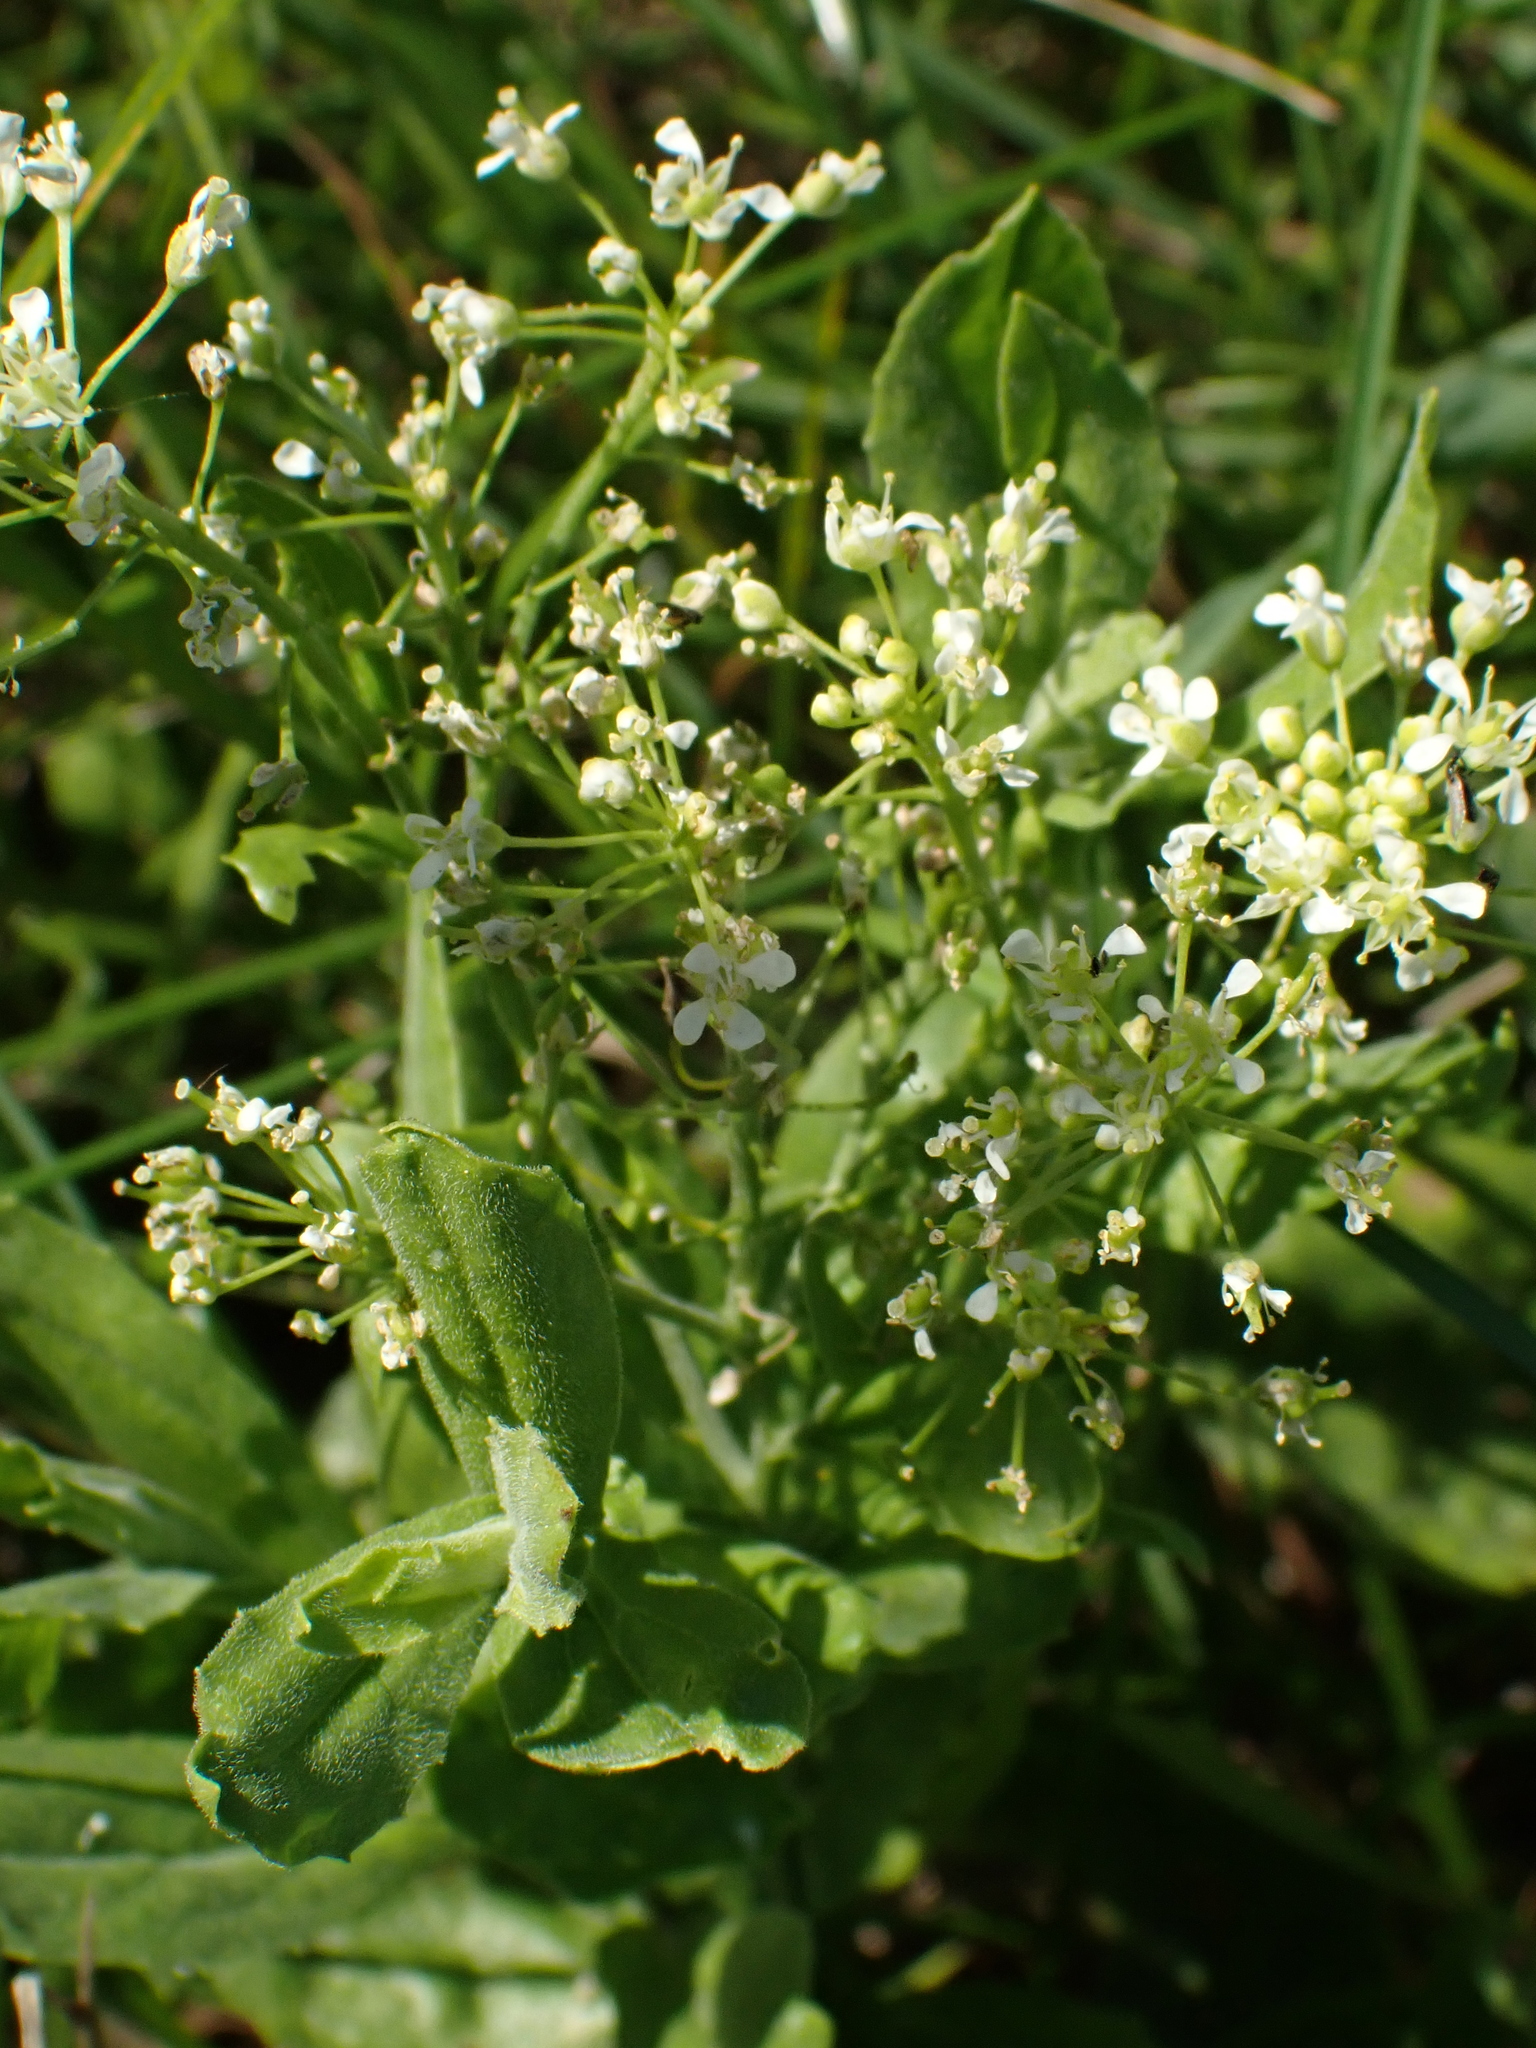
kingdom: Plantae
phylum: Tracheophyta
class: Magnoliopsida
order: Brassicales
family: Brassicaceae
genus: Lepidium
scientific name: Lepidium draba
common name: Hoary cress
